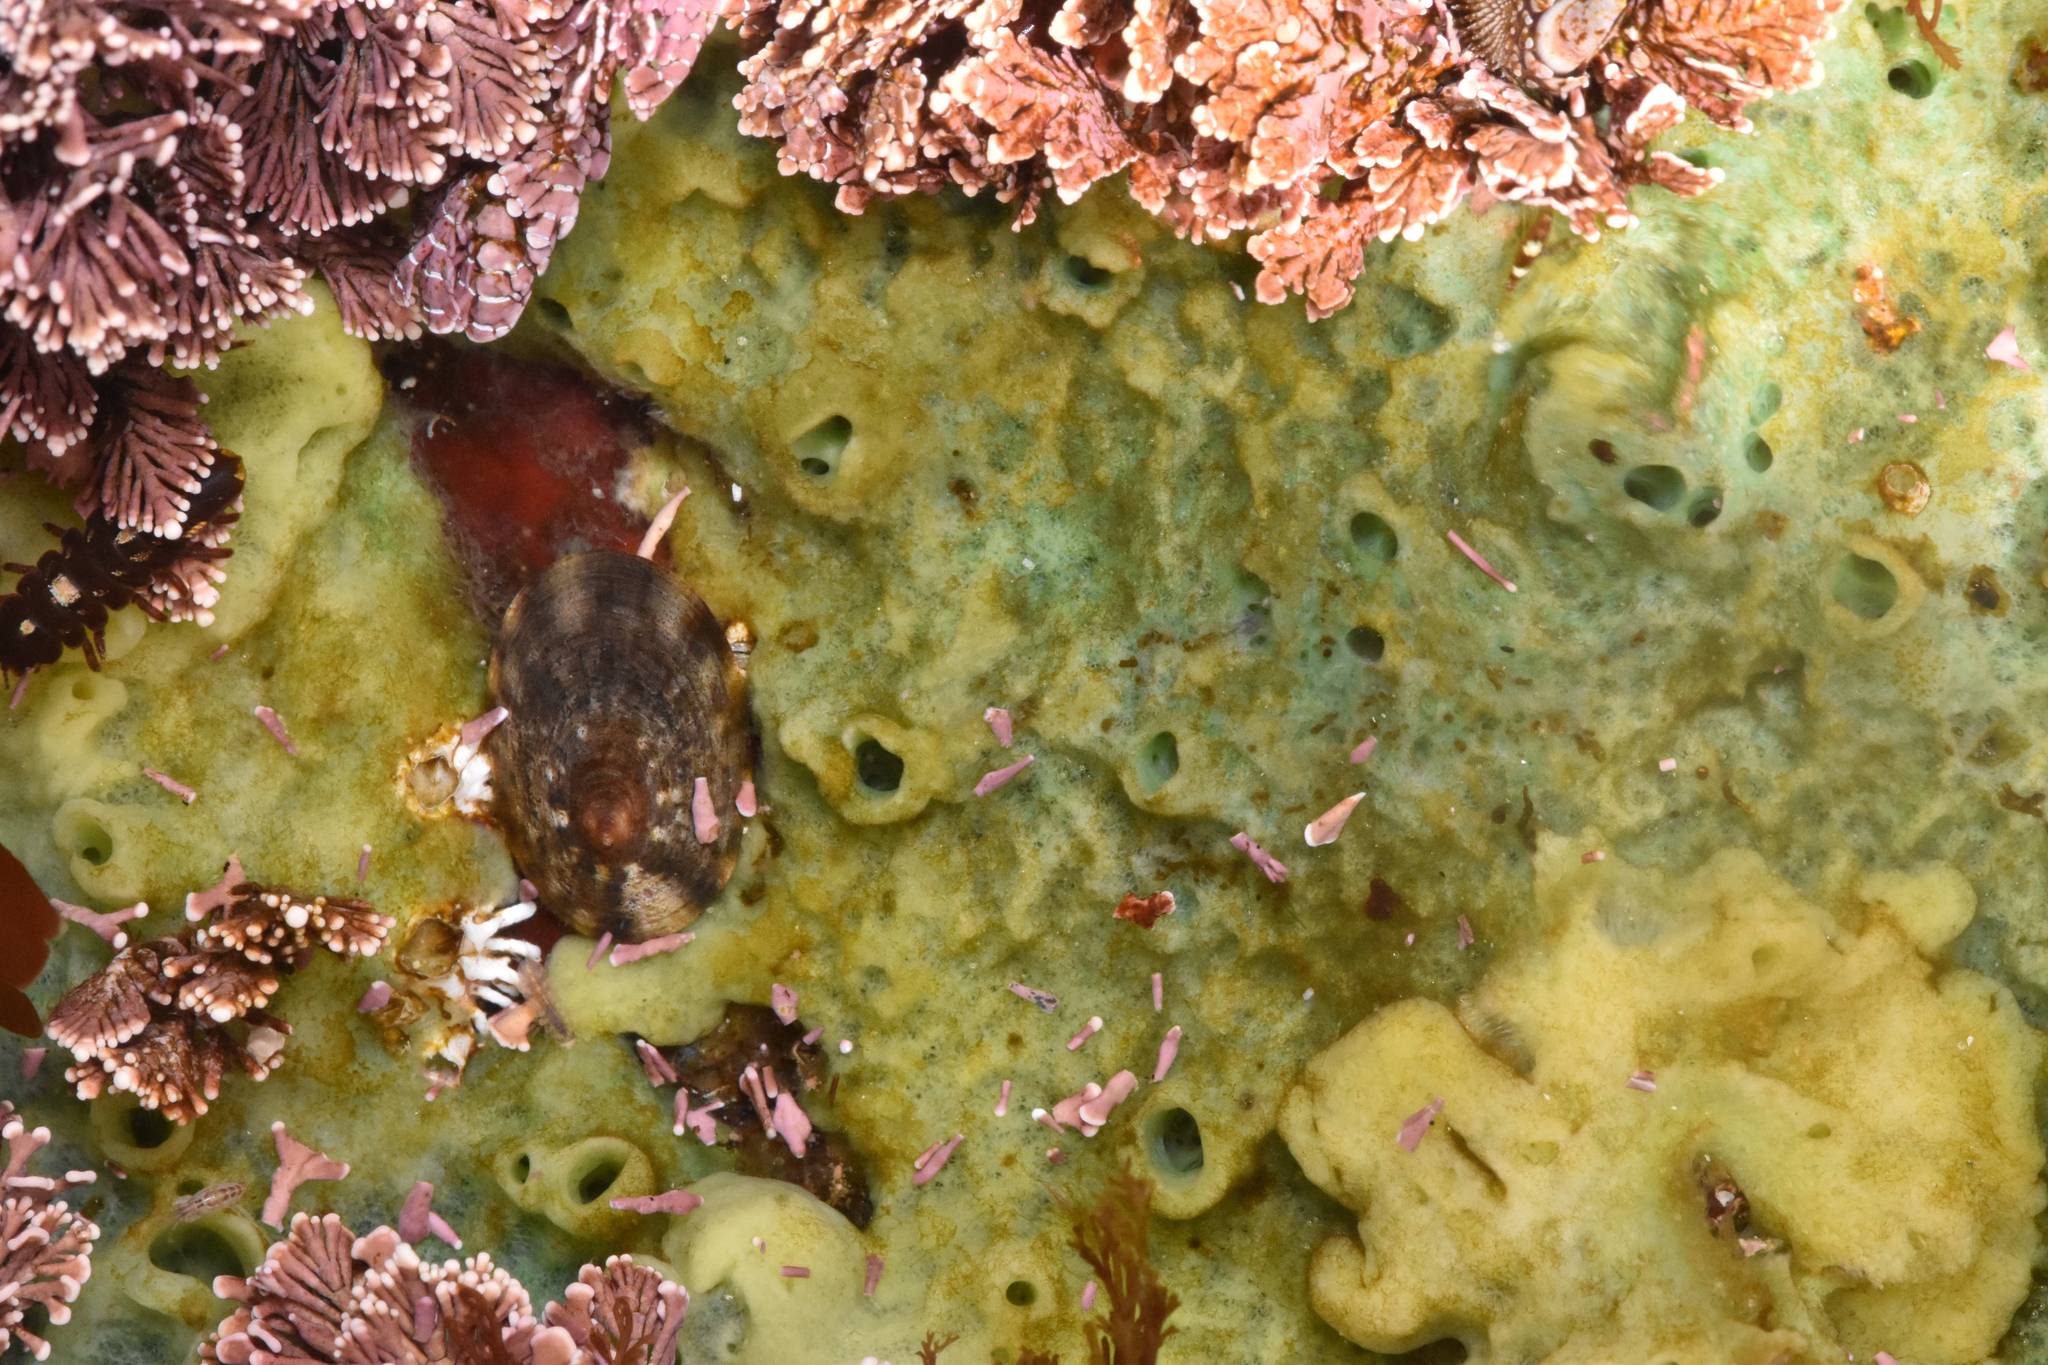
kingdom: Animalia
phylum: Porifera
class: Demospongiae
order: Suberitida
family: Halichondriidae
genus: Halichondria
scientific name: Halichondria panicea
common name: Breadcrumb sponge
